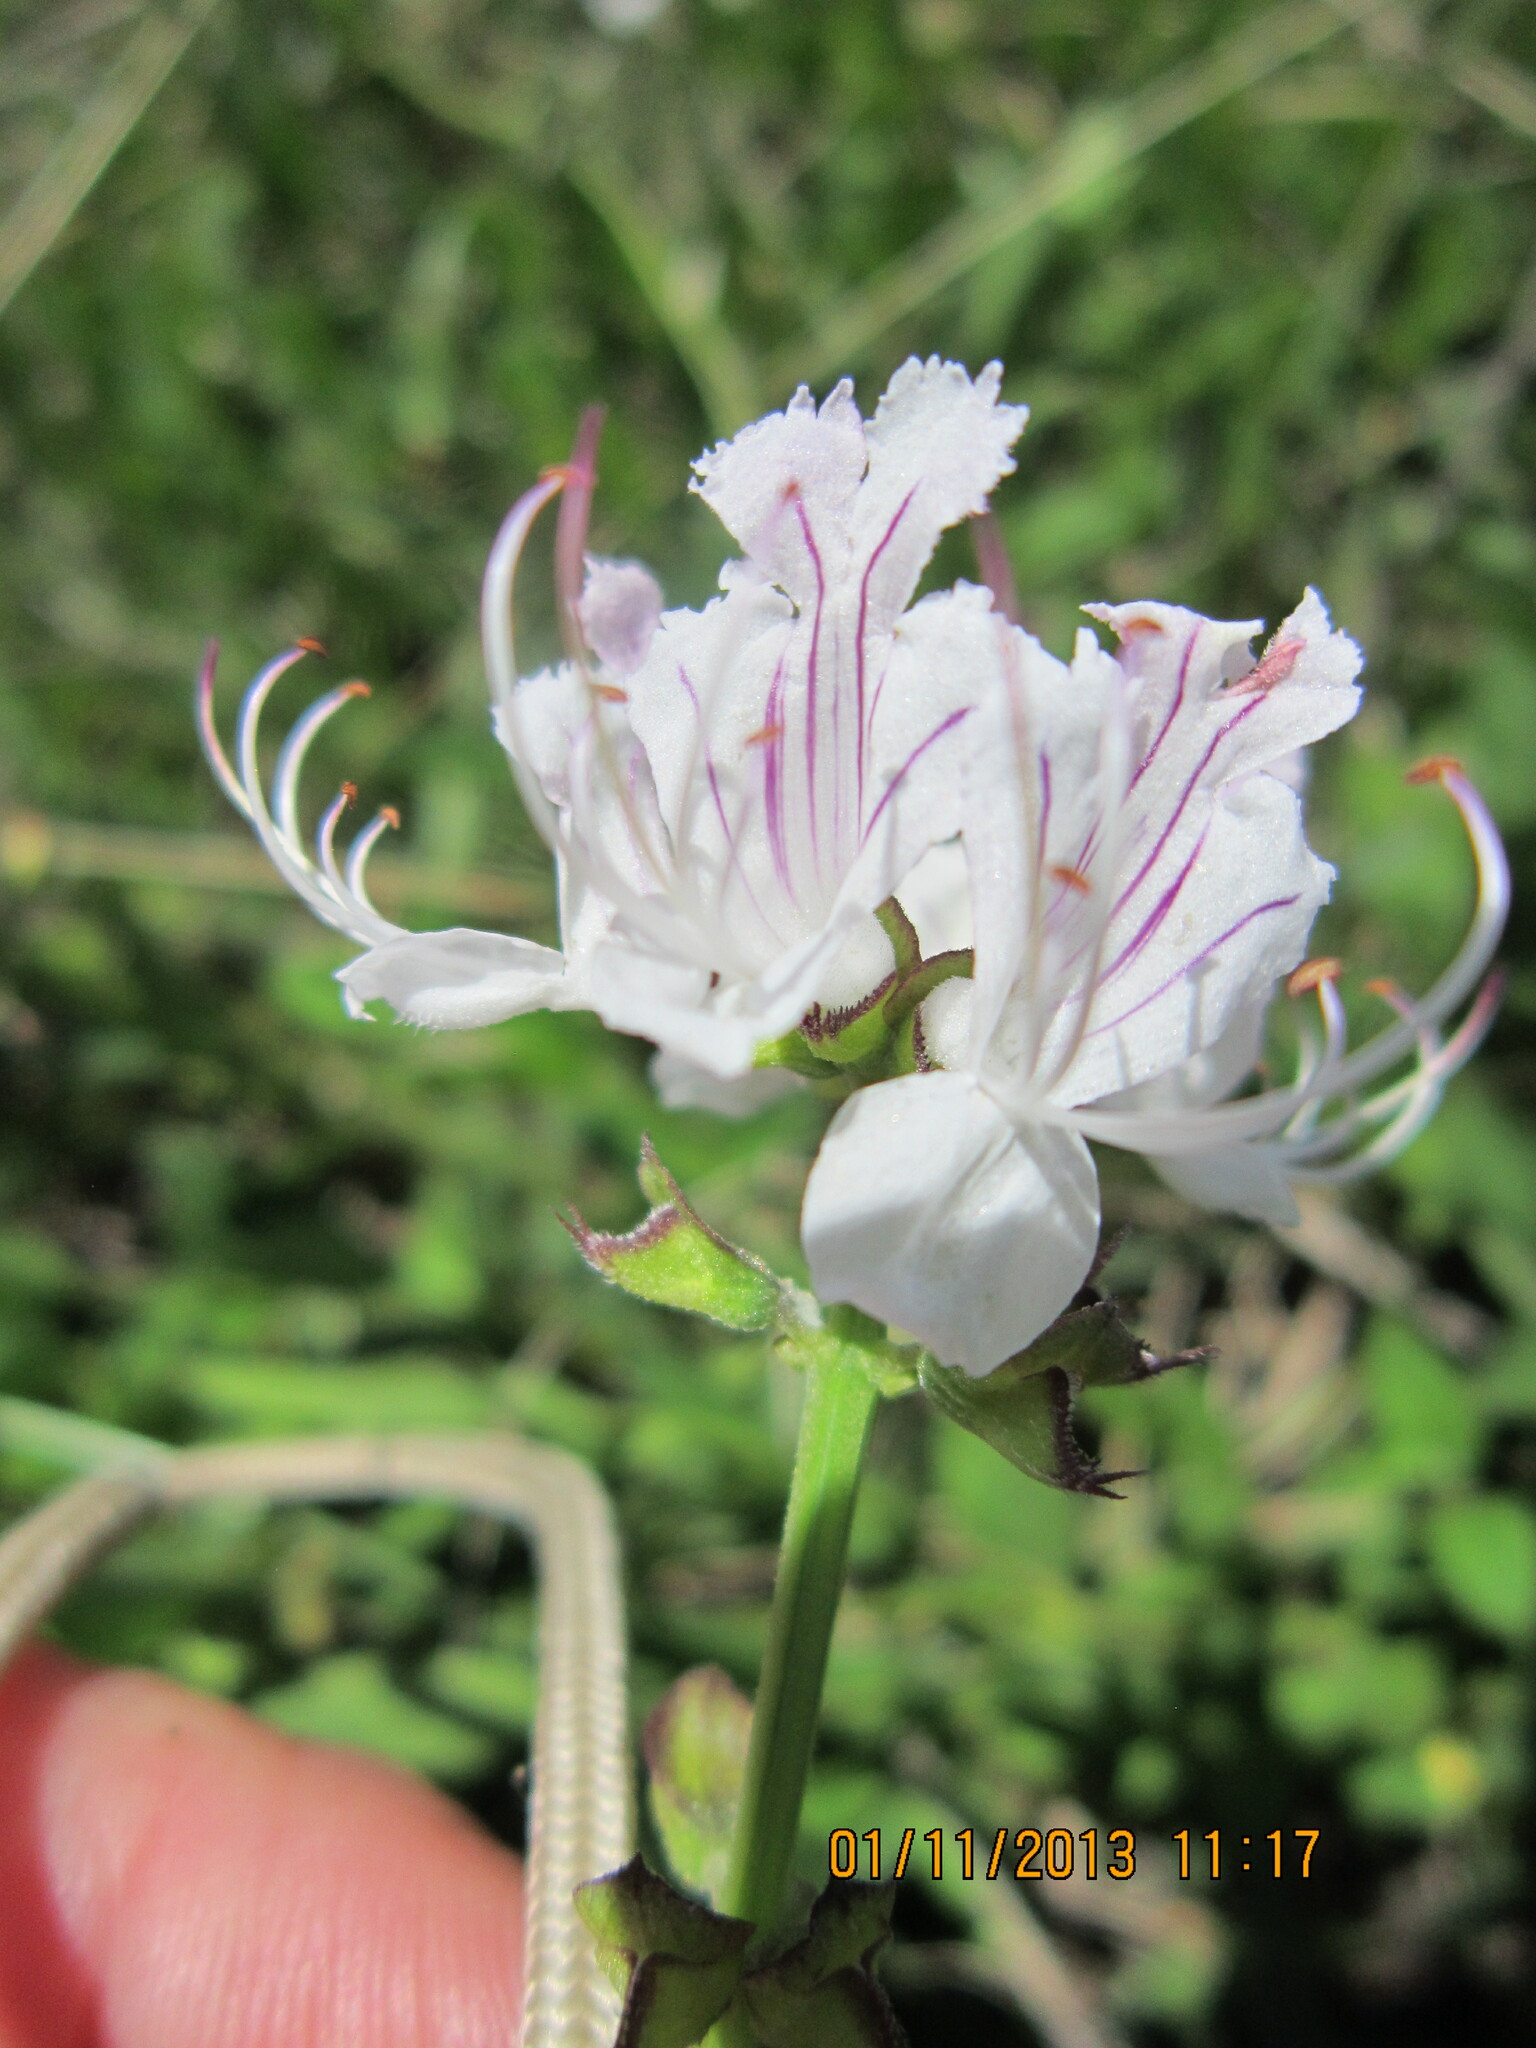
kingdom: Plantae
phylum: Tracheophyta
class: Magnoliopsida
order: Lamiales
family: Lamiaceae
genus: Ocimum
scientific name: Ocimum obovatum
